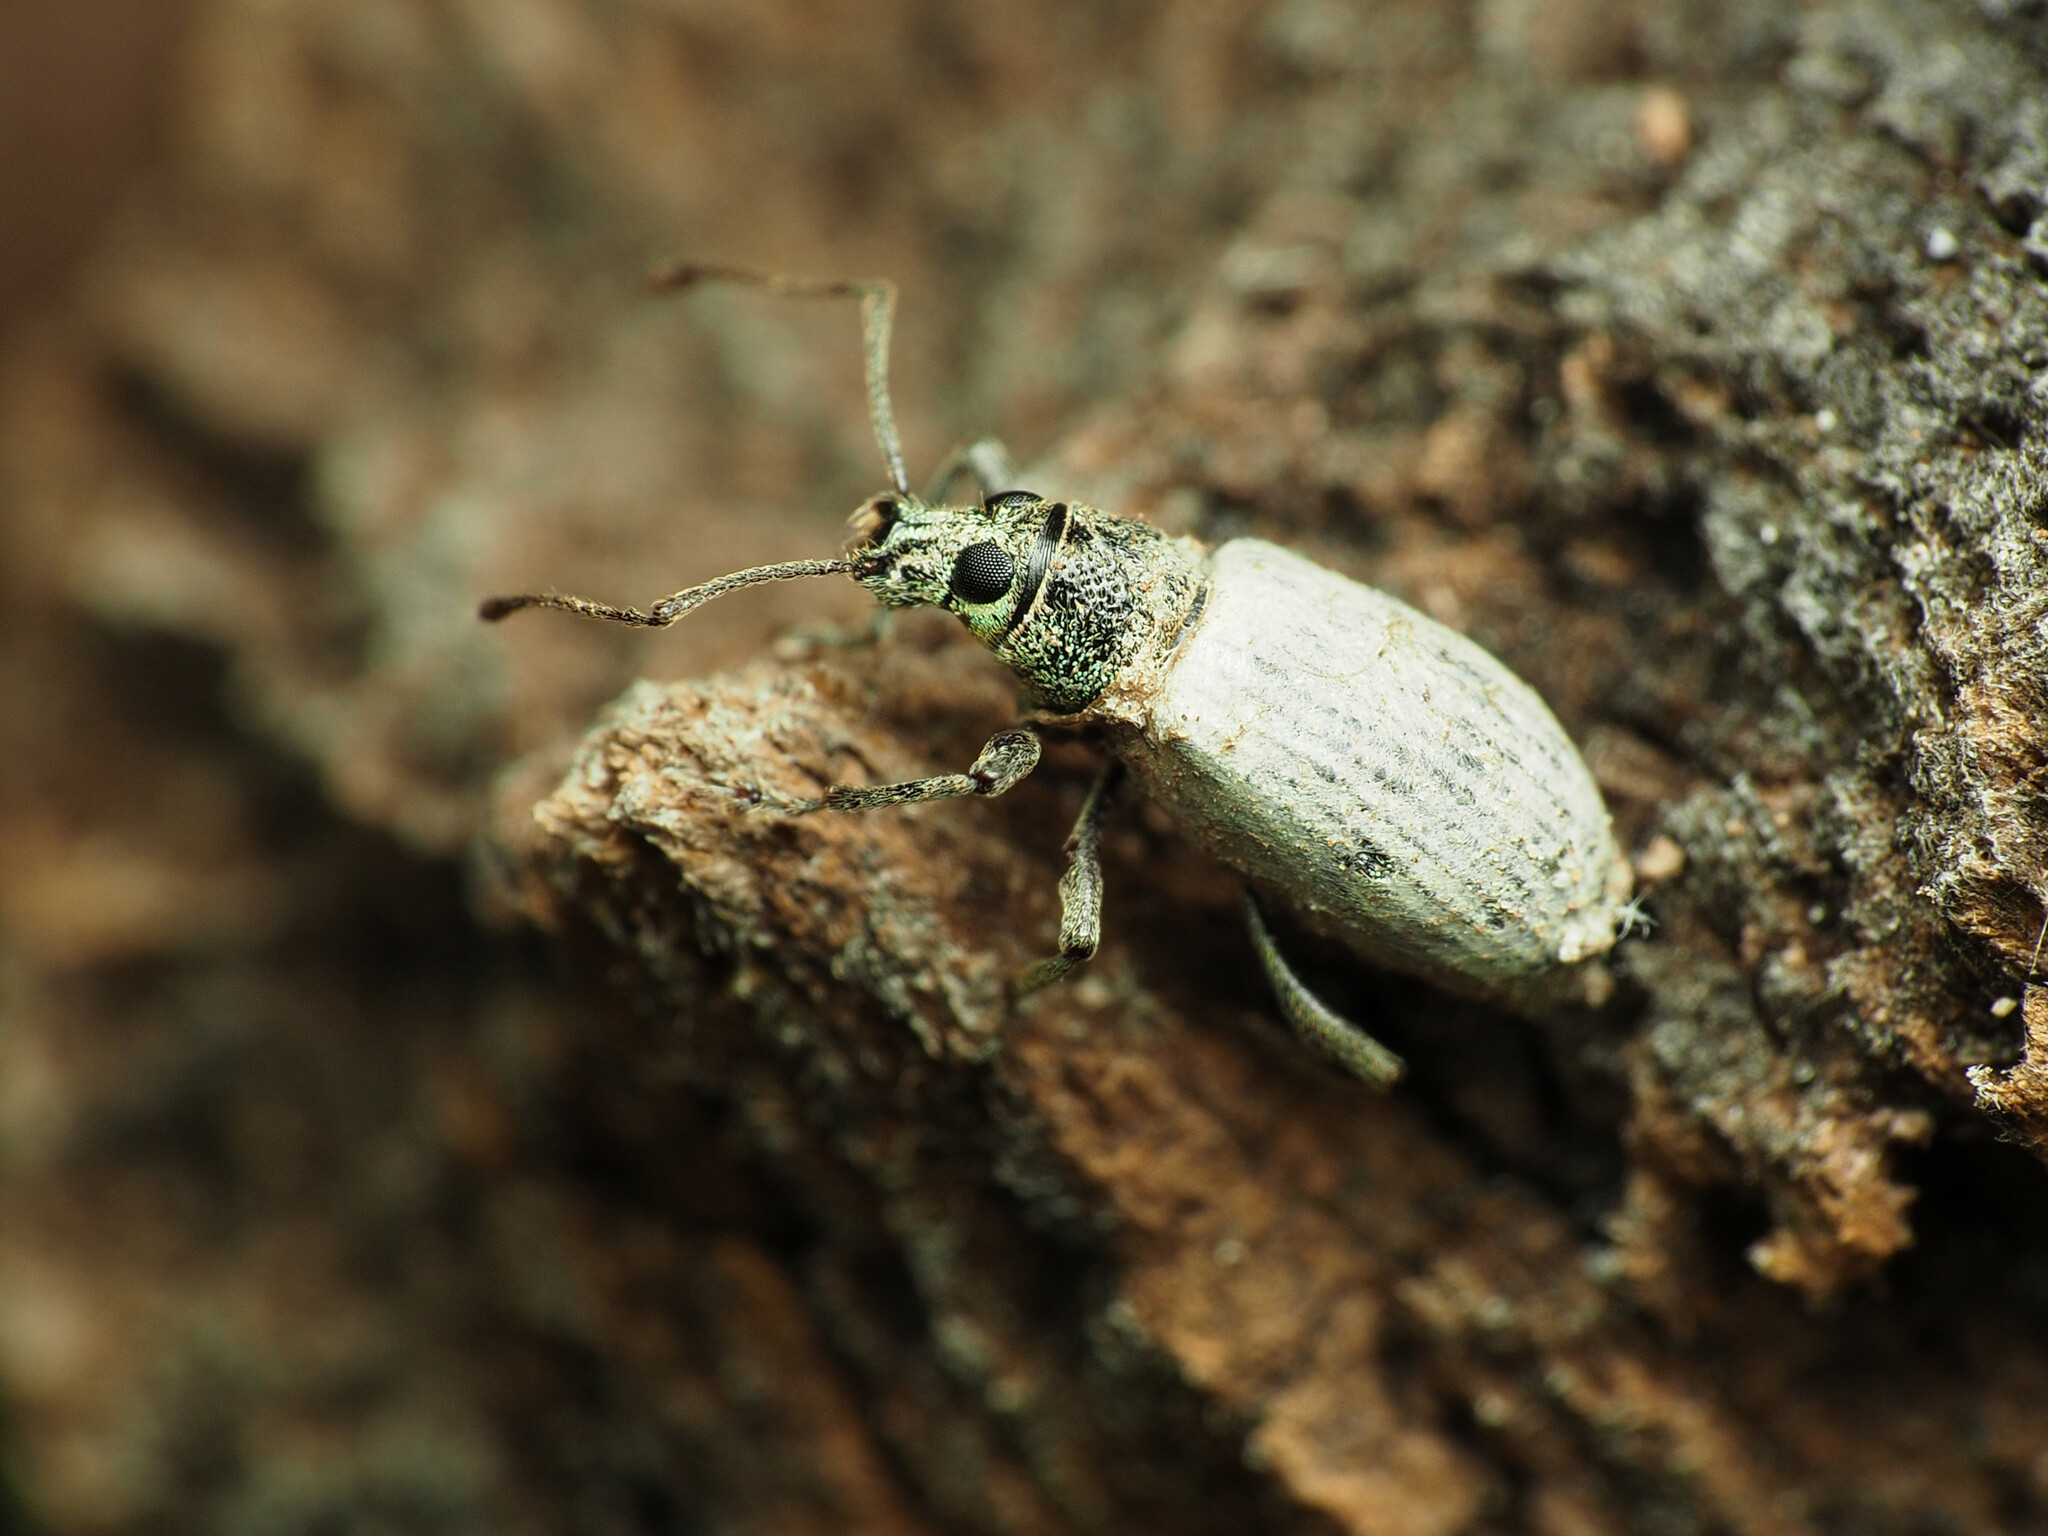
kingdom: Animalia
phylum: Arthropoda
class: Insecta
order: Coleoptera
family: Curculionidae
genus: Cyrtepistomus
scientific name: Cyrtepistomus castaneus
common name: Weevil
